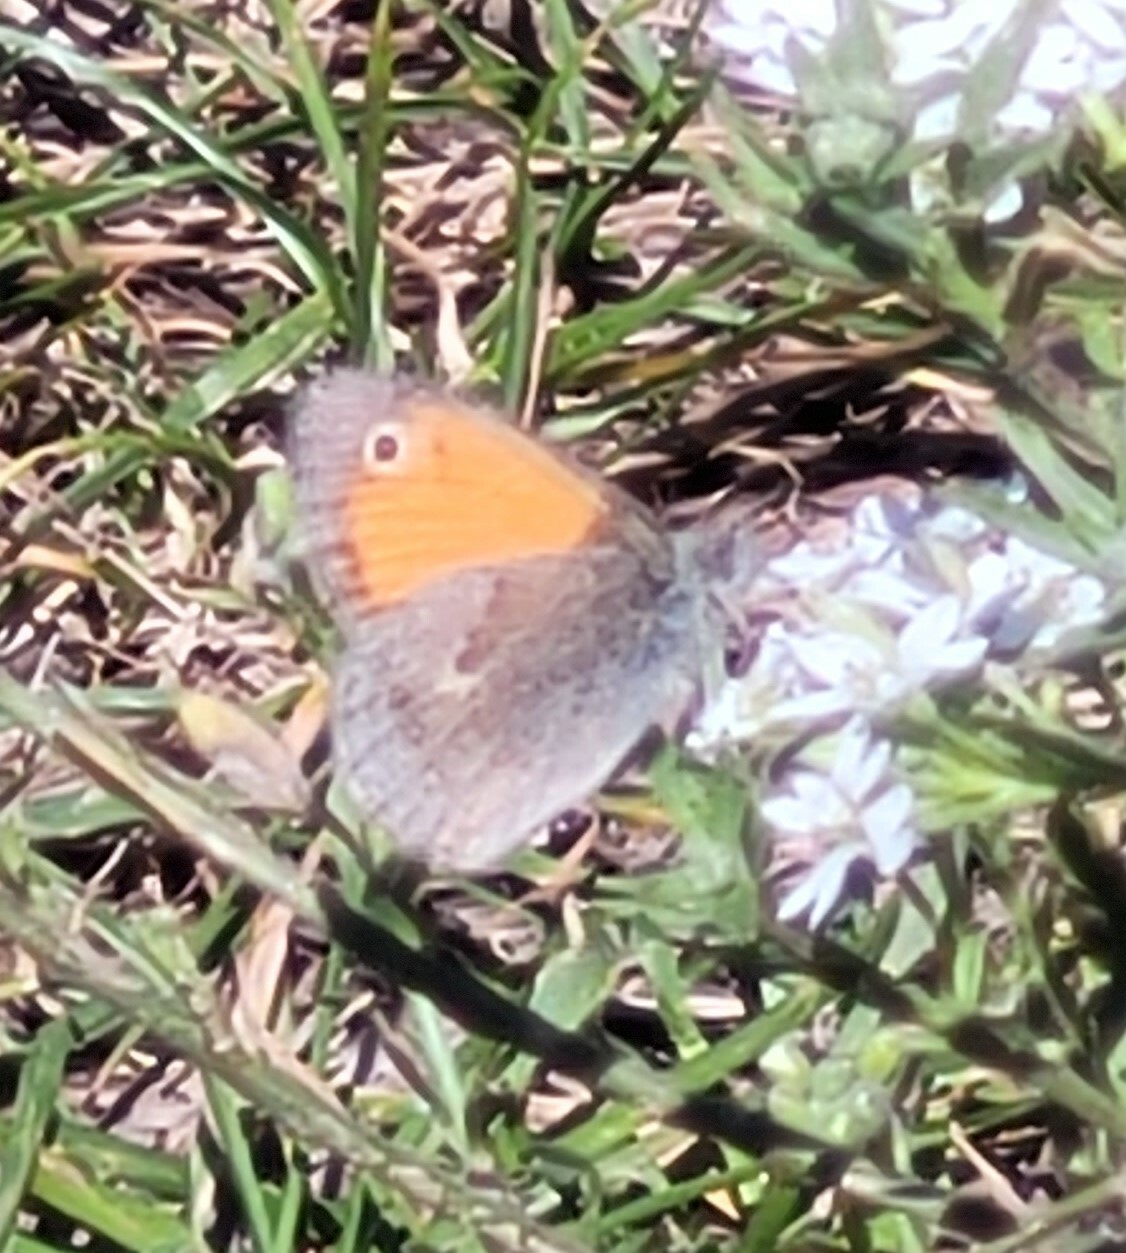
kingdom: Animalia
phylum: Arthropoda
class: Insecta
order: Lepidoptera
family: Nymphalidae
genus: Coenonympha
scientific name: Coenonympha pamphilus
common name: Small heath
